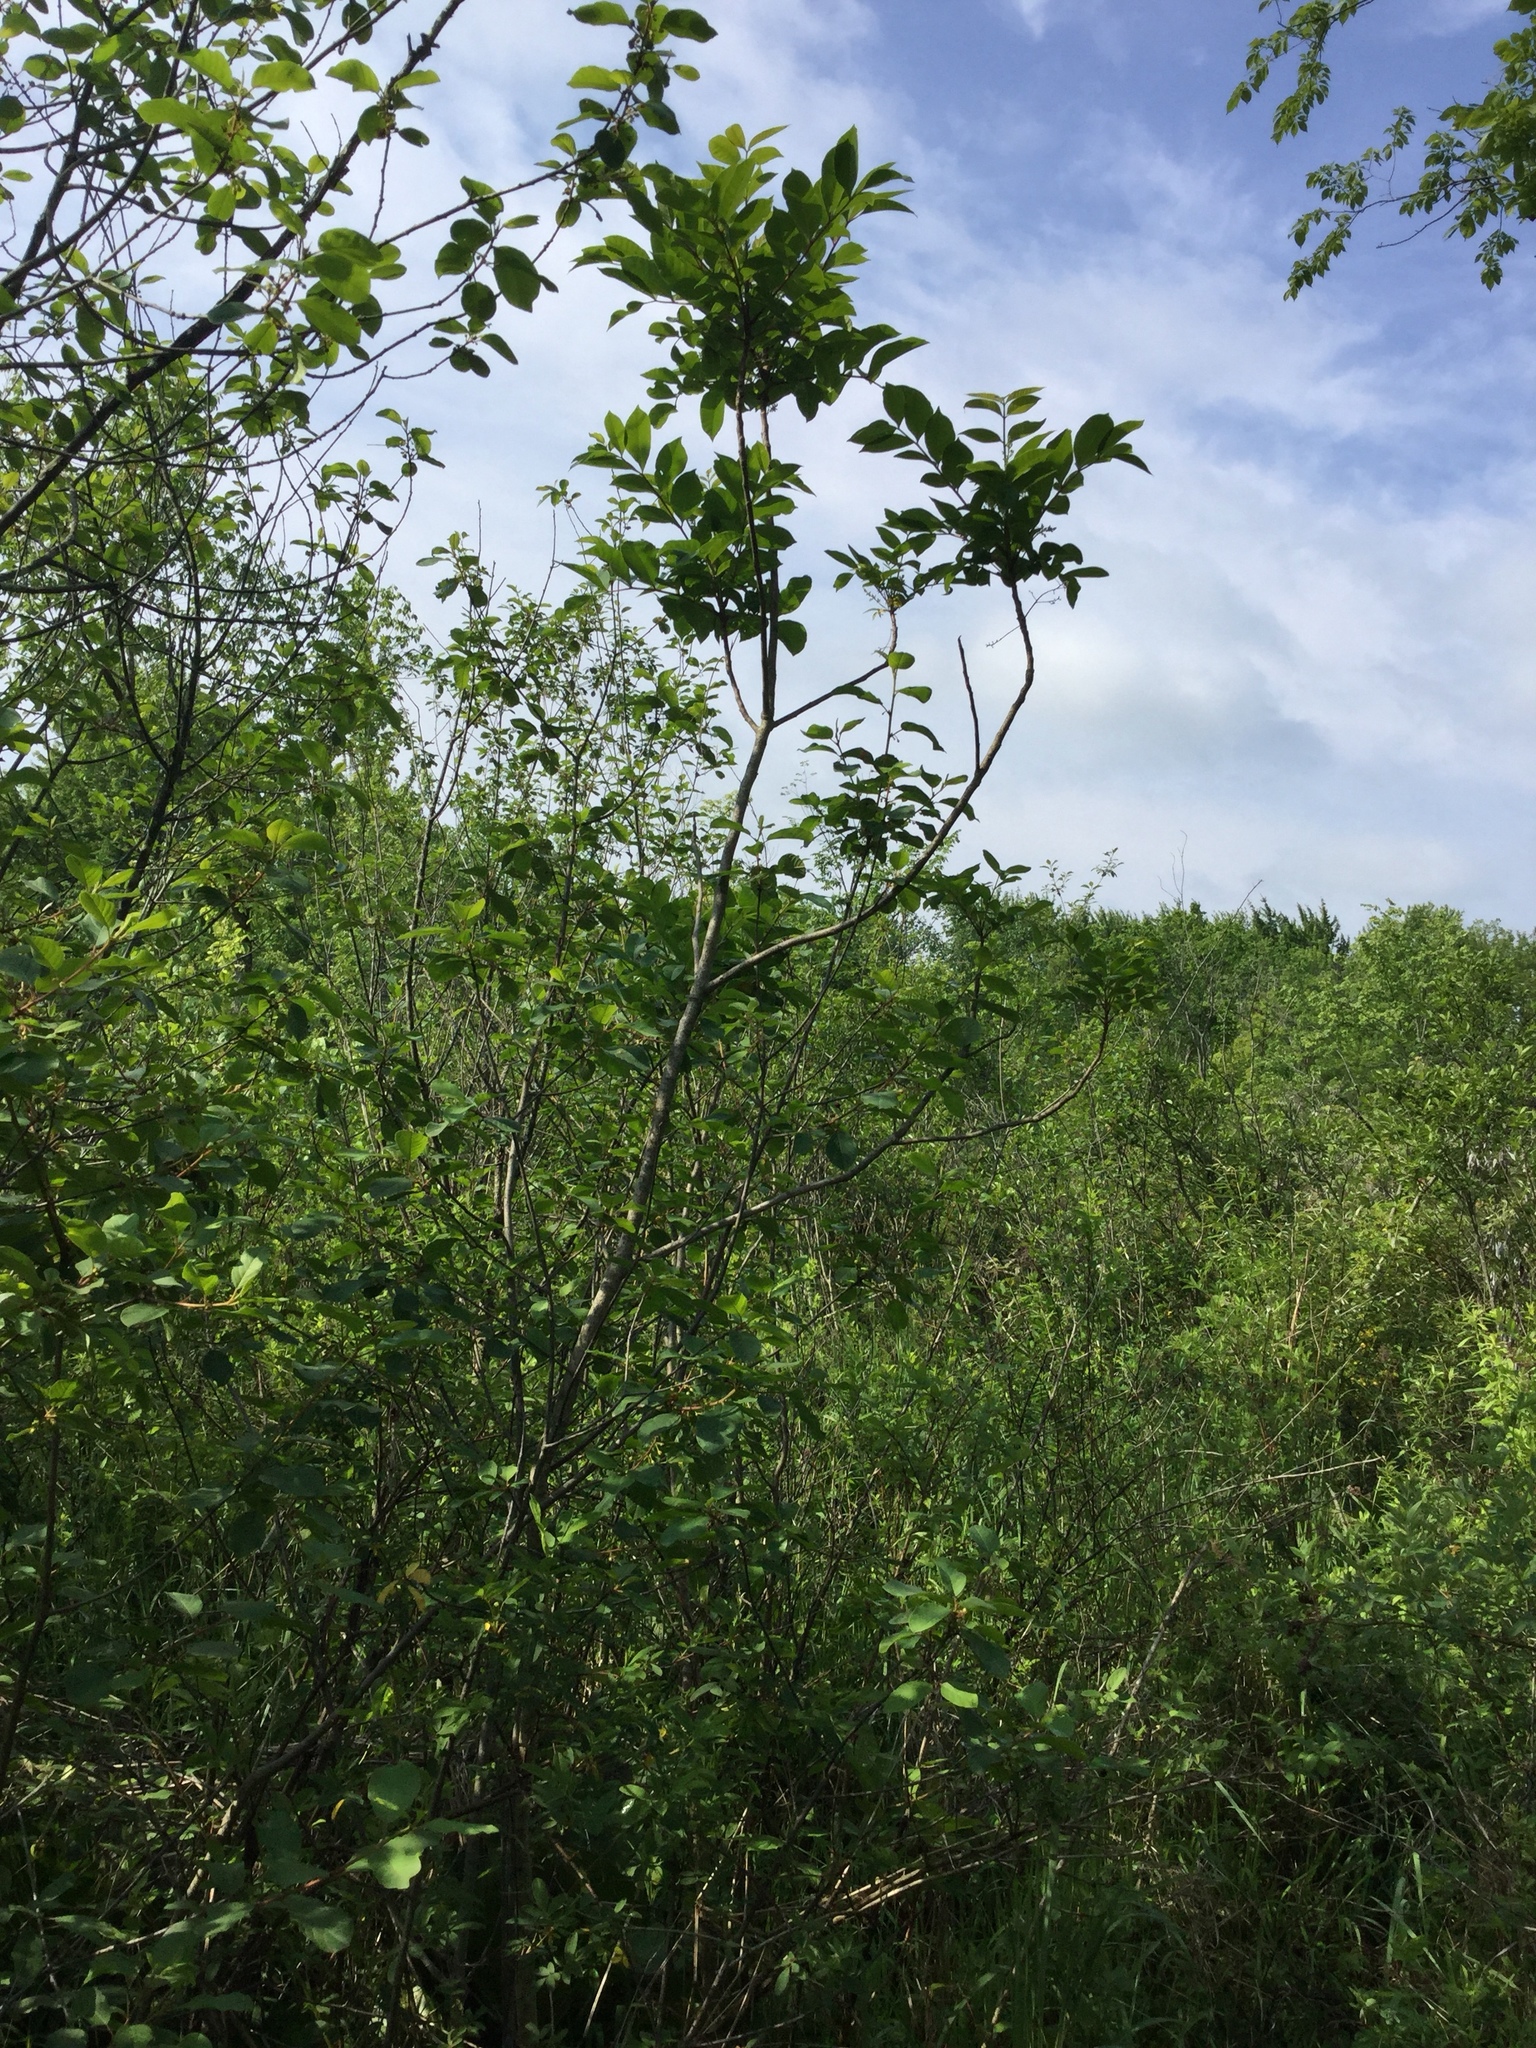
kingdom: Plantae
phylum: Tracheophyta
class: Magnoliopsida
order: Sapindales
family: Anacardiaceae
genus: Toxicodendron
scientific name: Toxicodendron vernix
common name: Poison sumac
